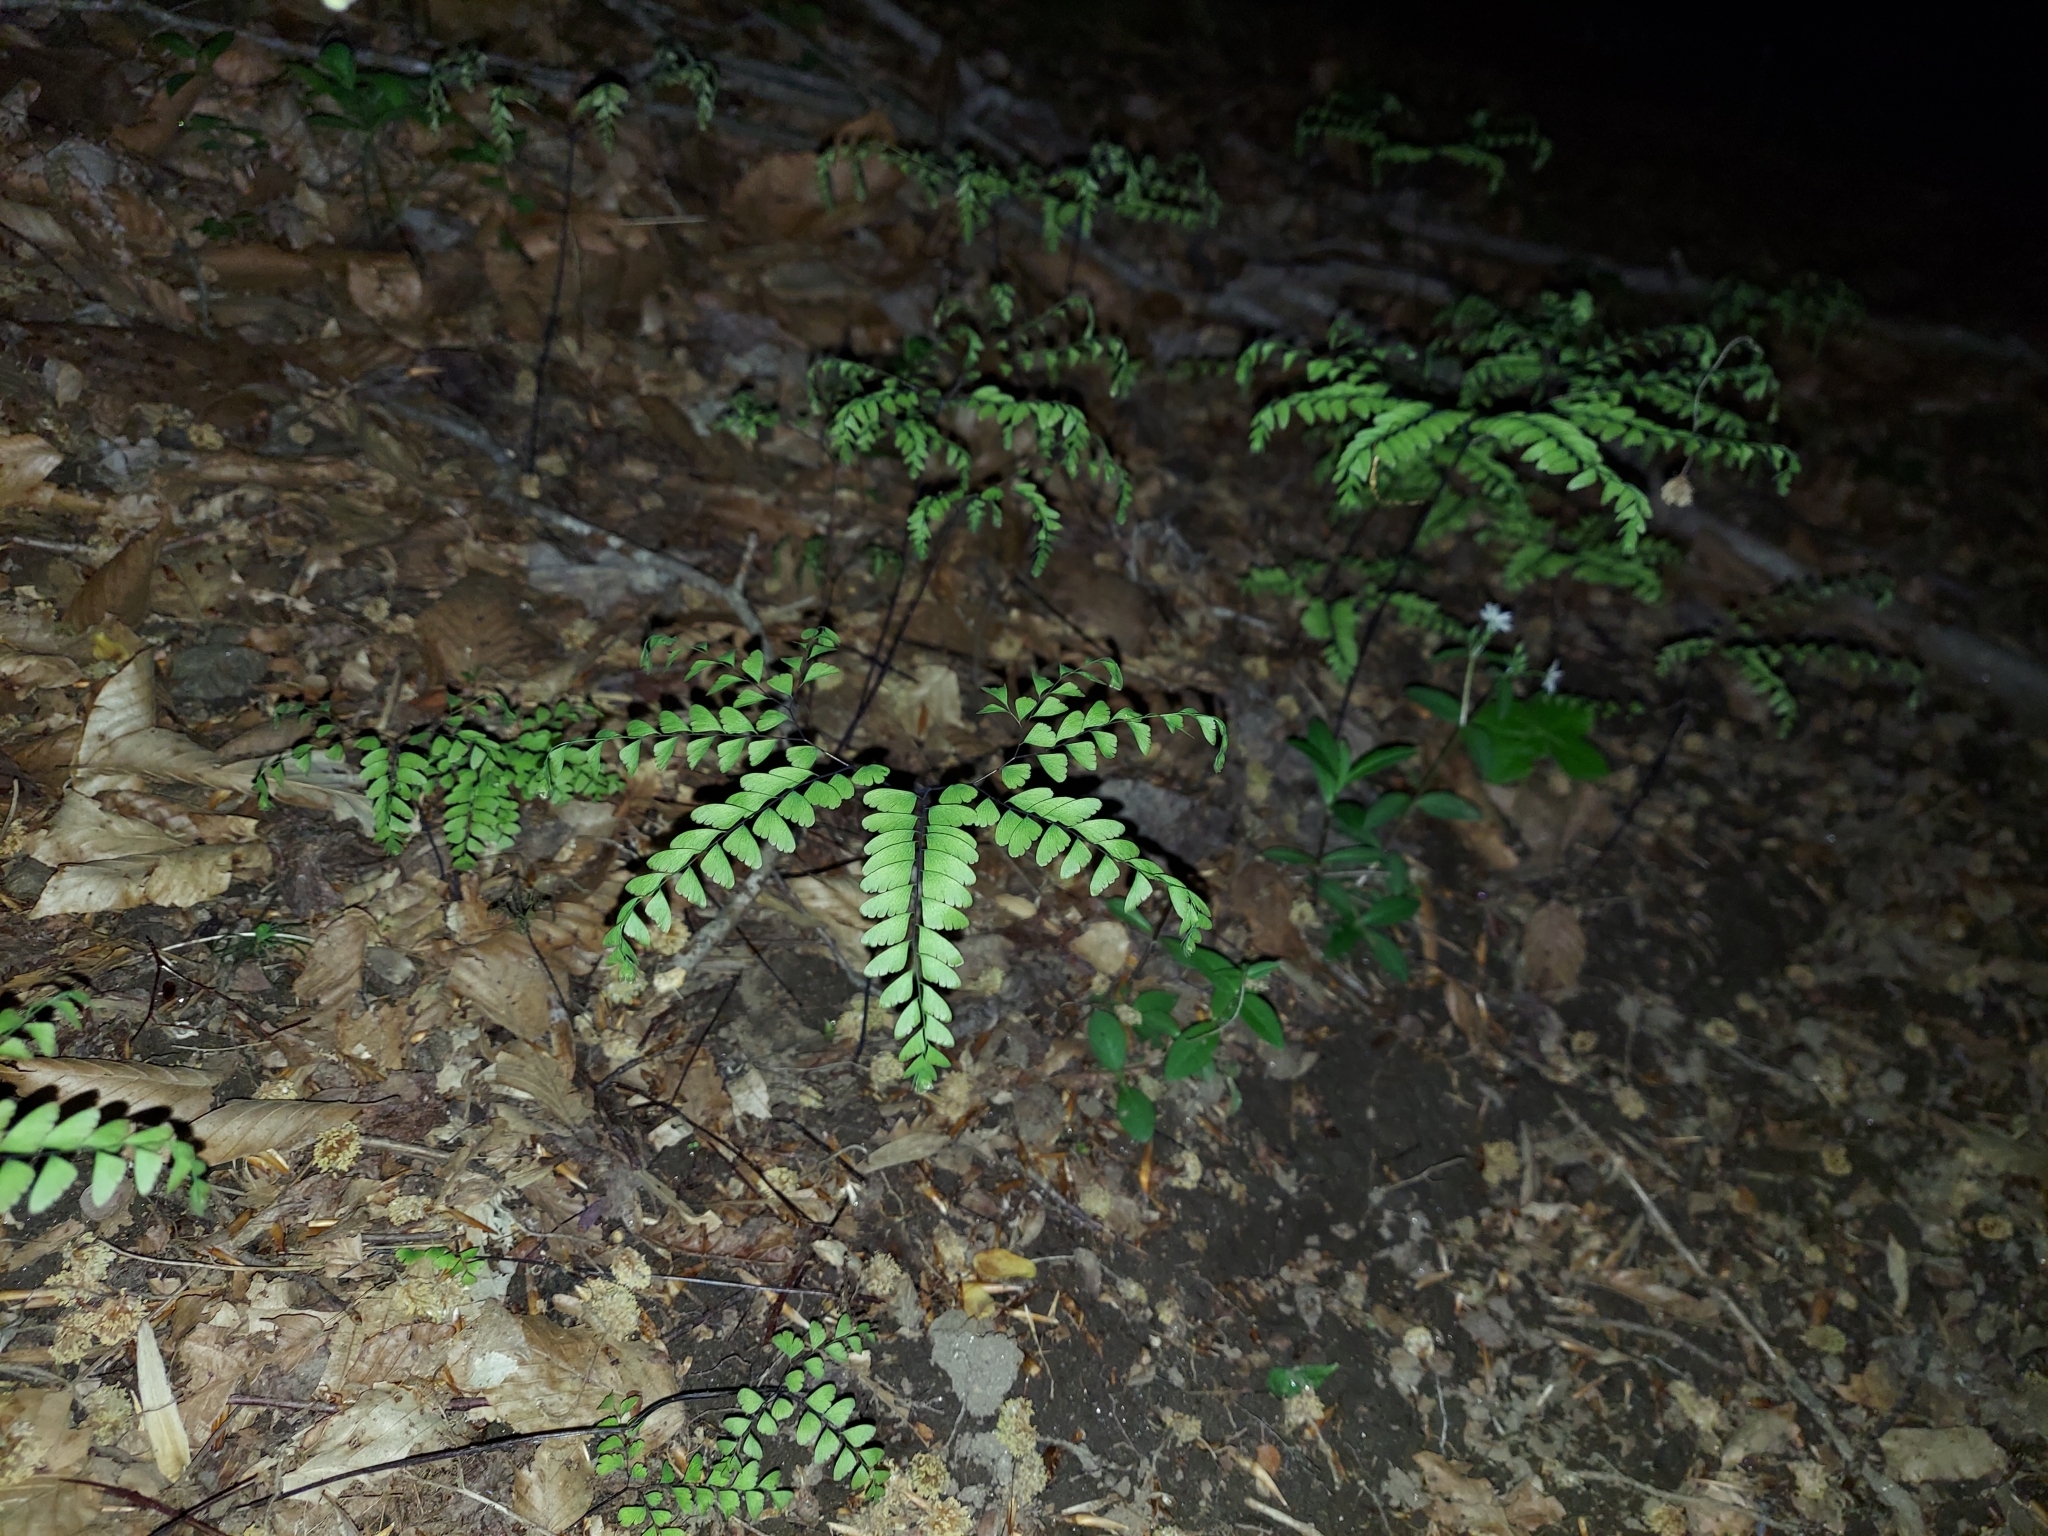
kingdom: Plantae
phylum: Tracheophyta
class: Polypodiopsida
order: Polypodiales
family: Pteridaceae
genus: Adiantum
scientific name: Adiantum pedatum
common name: Five-finger fern
